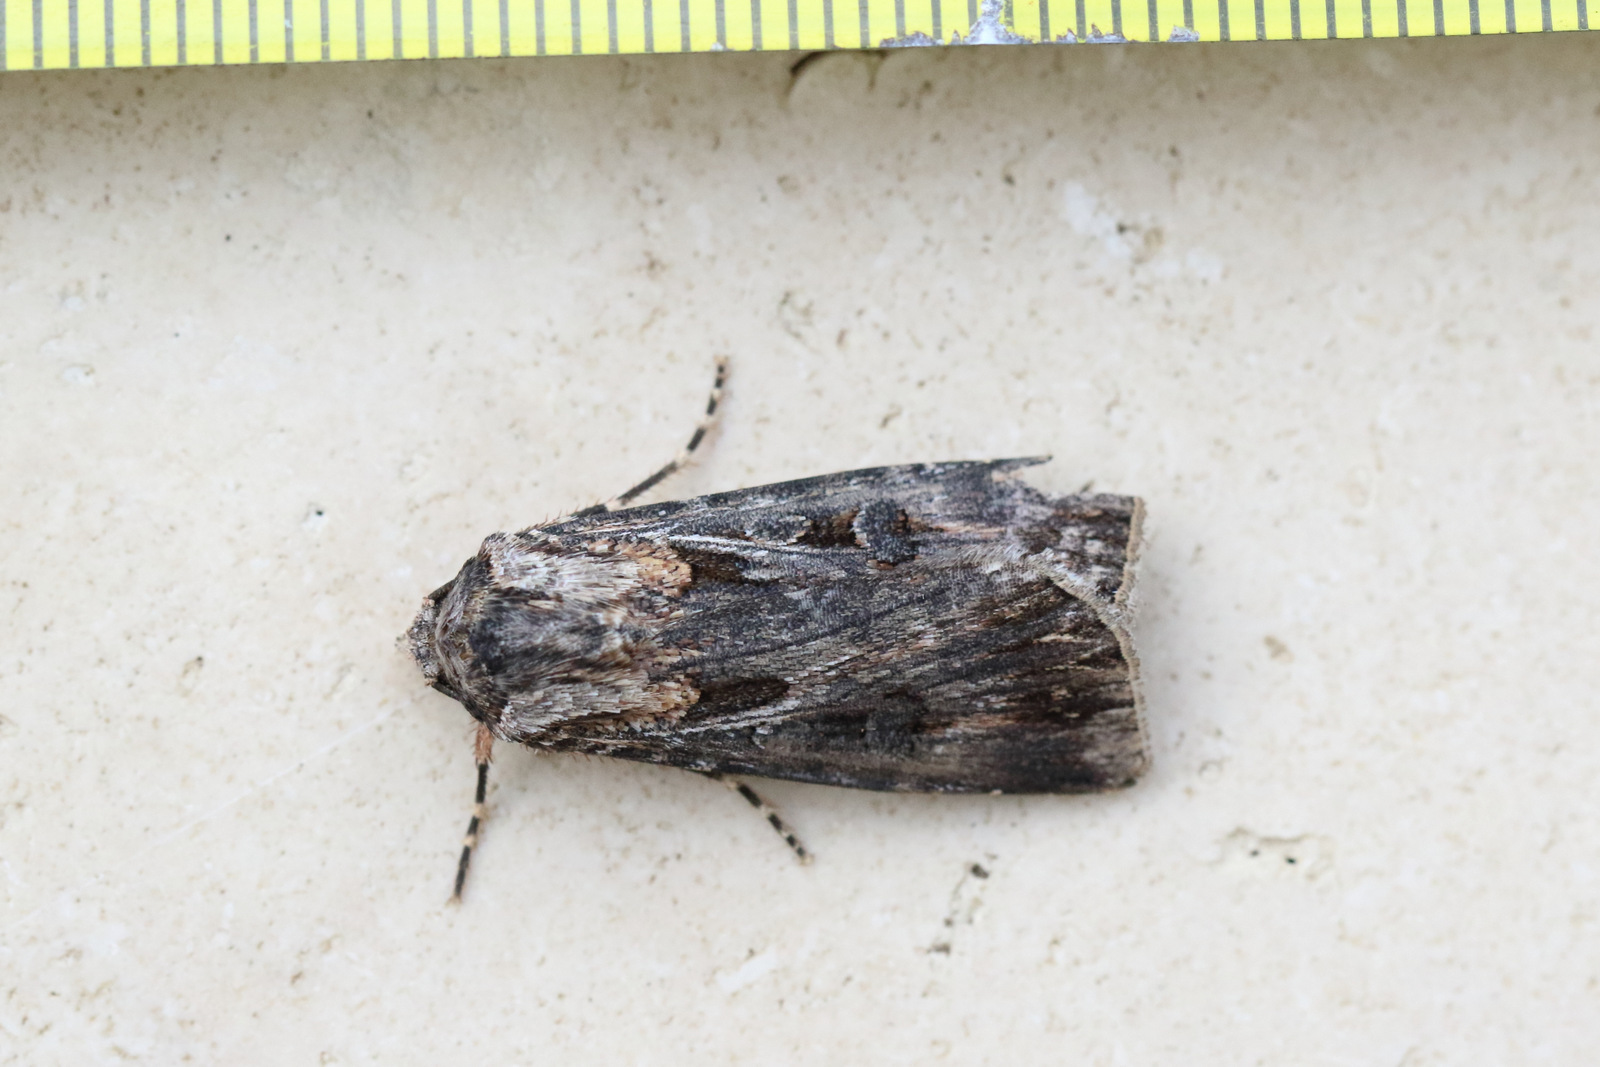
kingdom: Animalia
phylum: Arthropoda
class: Insecta
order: Lepidoptera
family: Noctuidae
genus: Agrotis
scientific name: Agrotis munda
